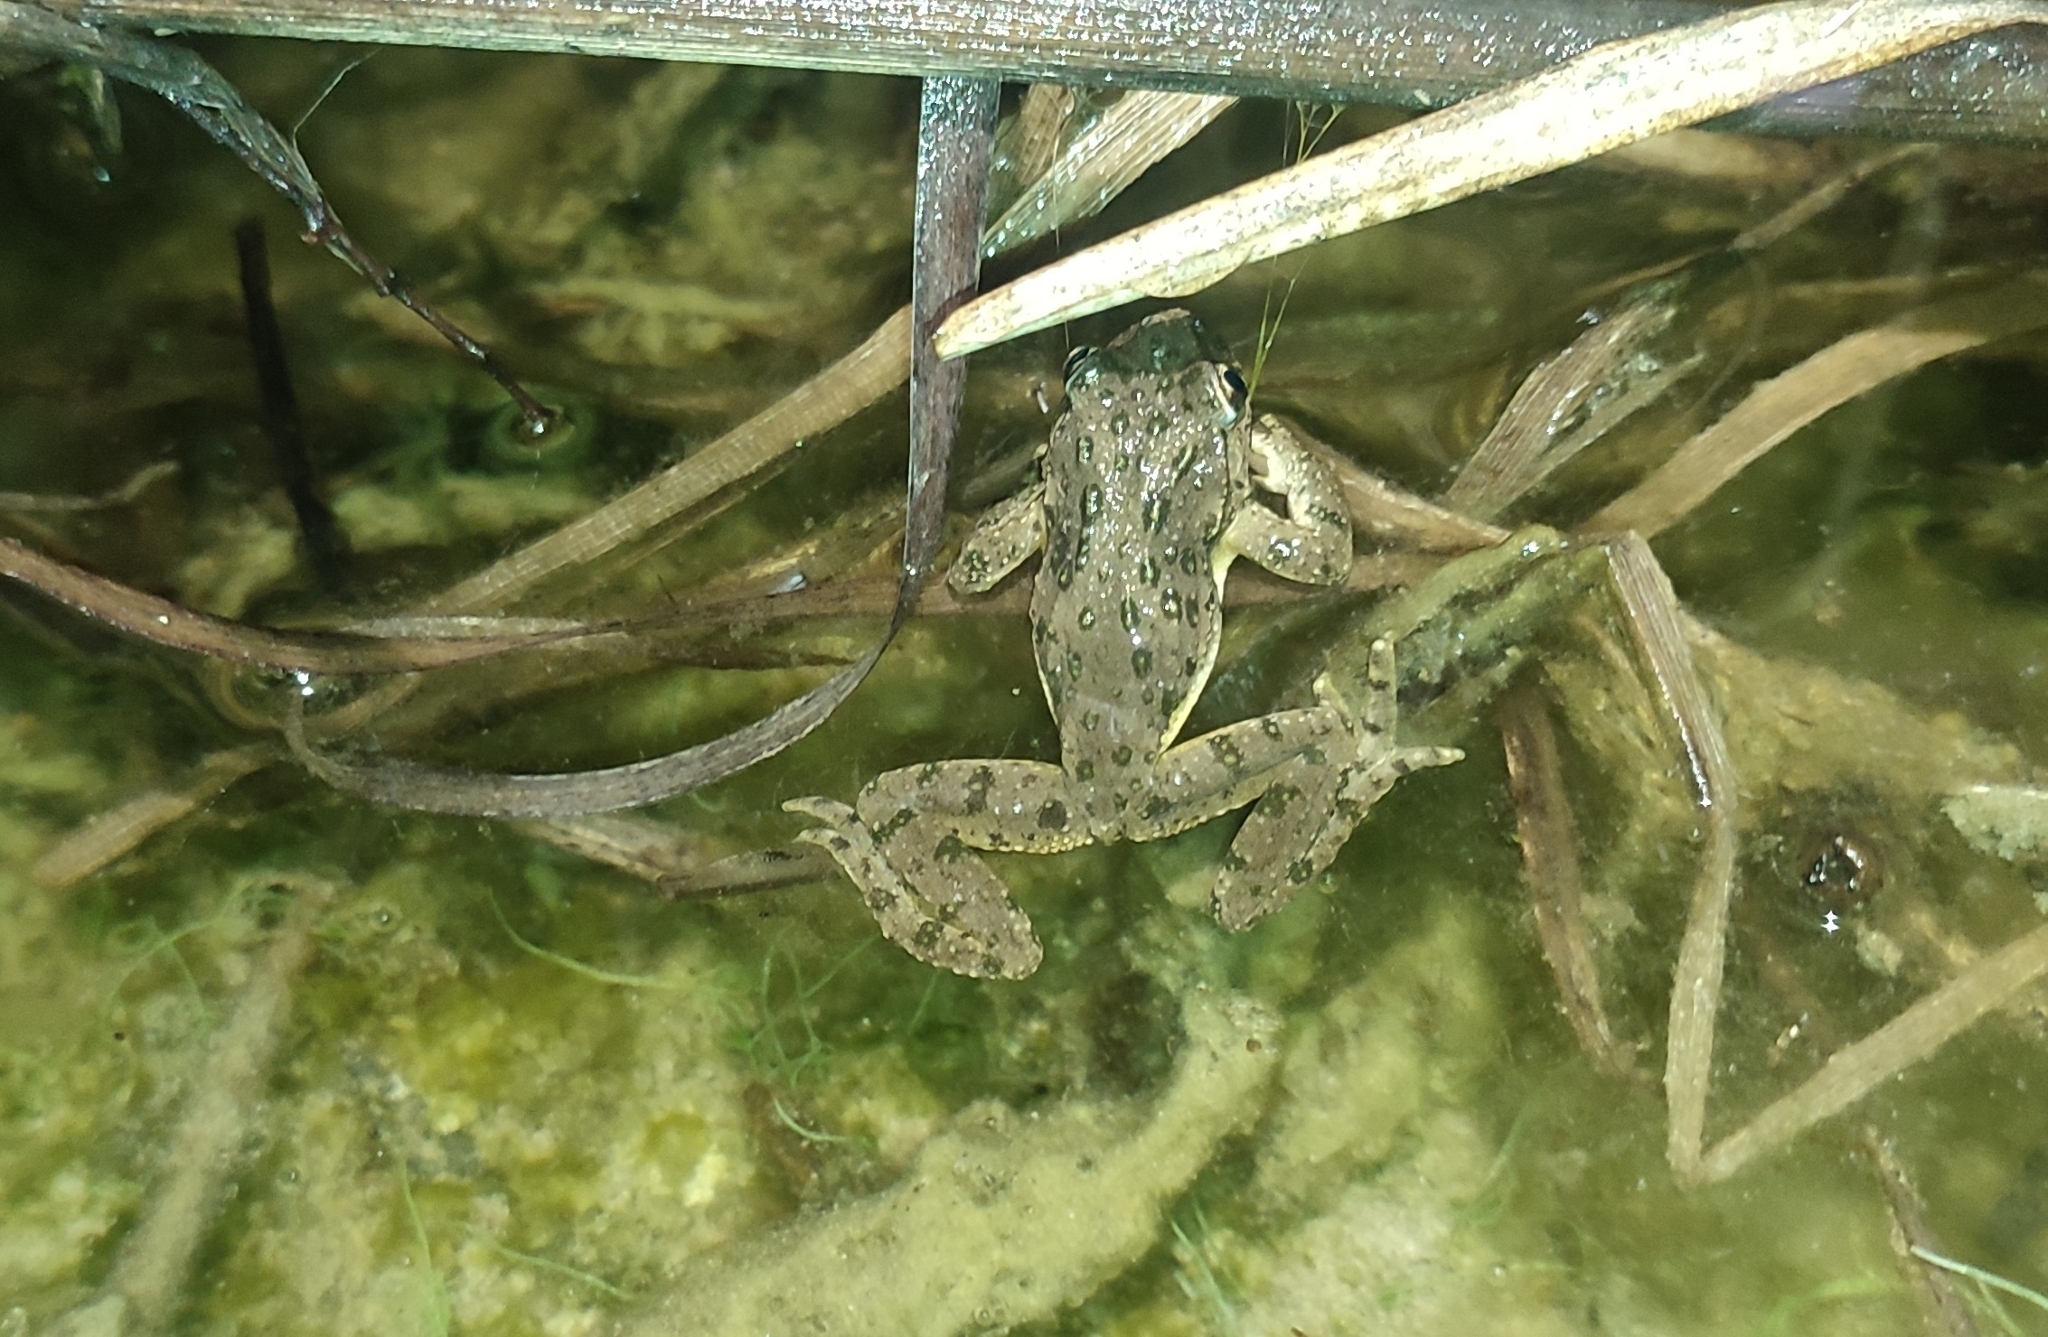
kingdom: Animalia
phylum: Chordata
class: Amphibia
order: Anura
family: Pelodytidae
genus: Pelodytes
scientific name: Pelodytes punctatus
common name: Parsley frog
